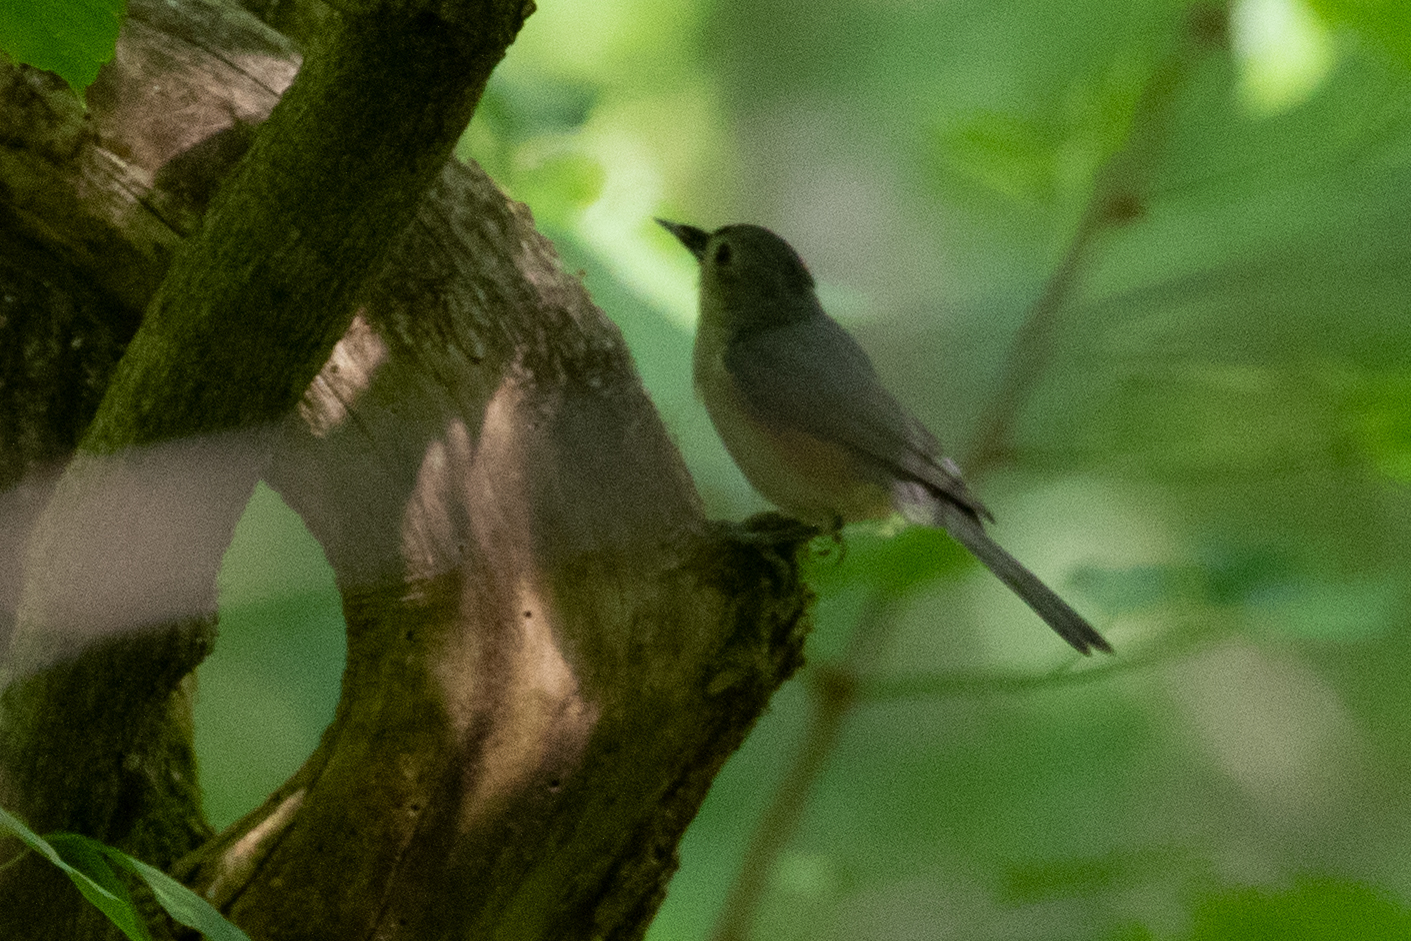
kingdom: Animalia
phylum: Chordata
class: Aves
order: Passeriformes
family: Paridae
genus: Baeolophus
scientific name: Baeolophus bicolor
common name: Tufted titmouse
